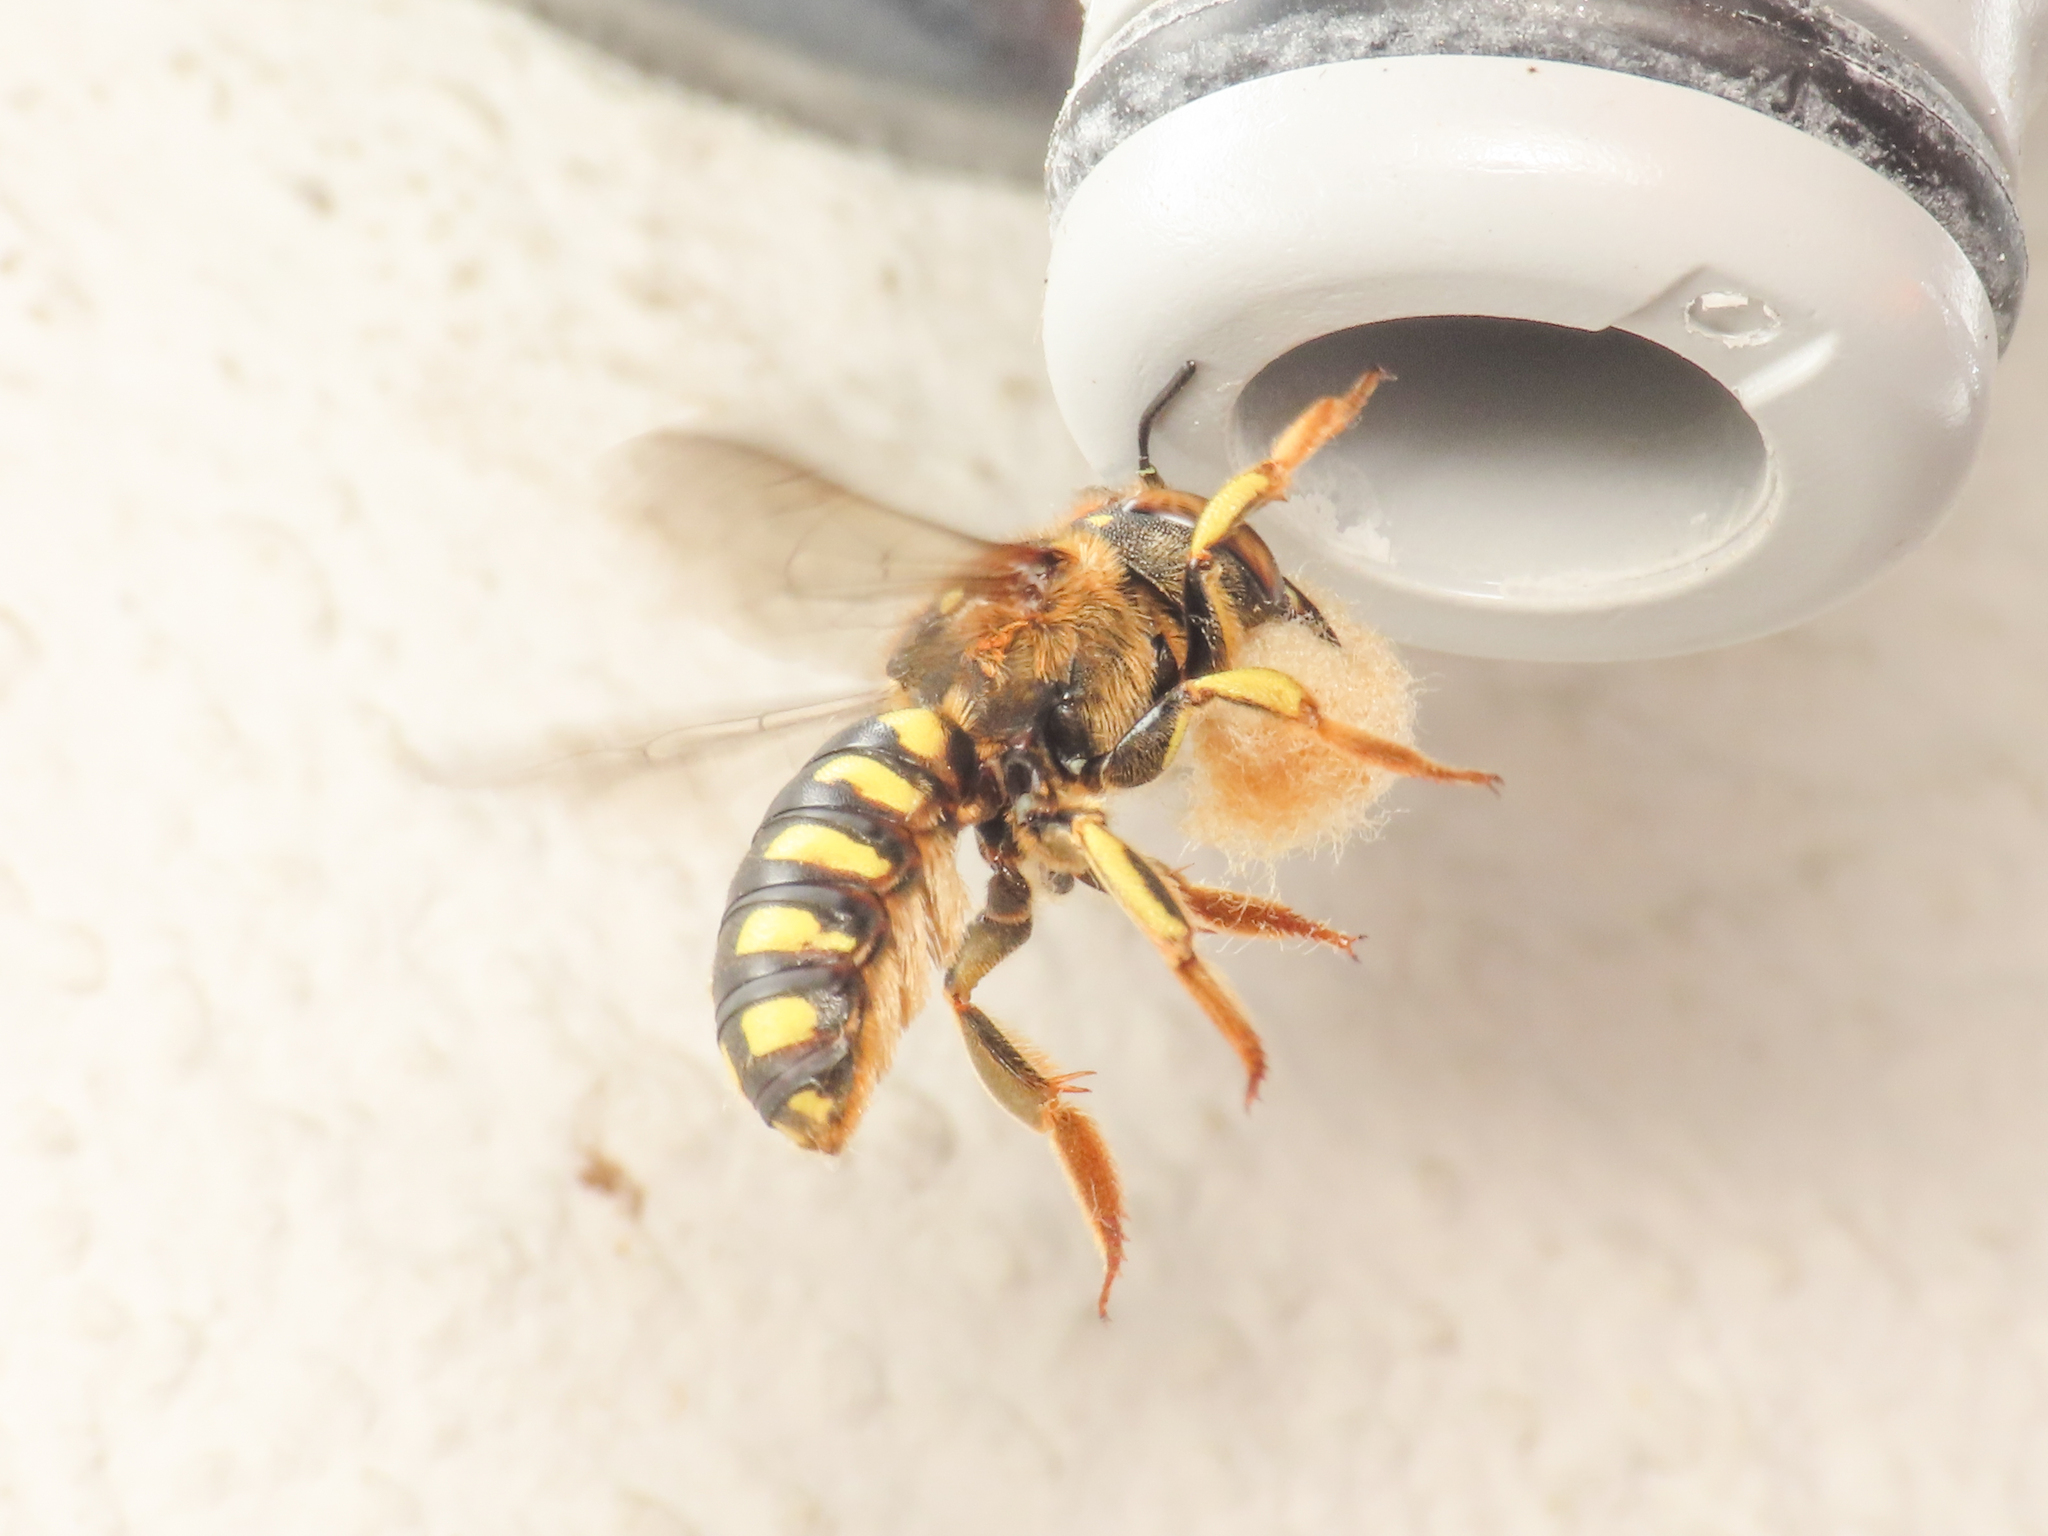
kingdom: Animalia
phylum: Arthropoda
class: Insecta
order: Hymenoptera
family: Megachilidae
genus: Anthidium
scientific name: Anthidium florentinum
